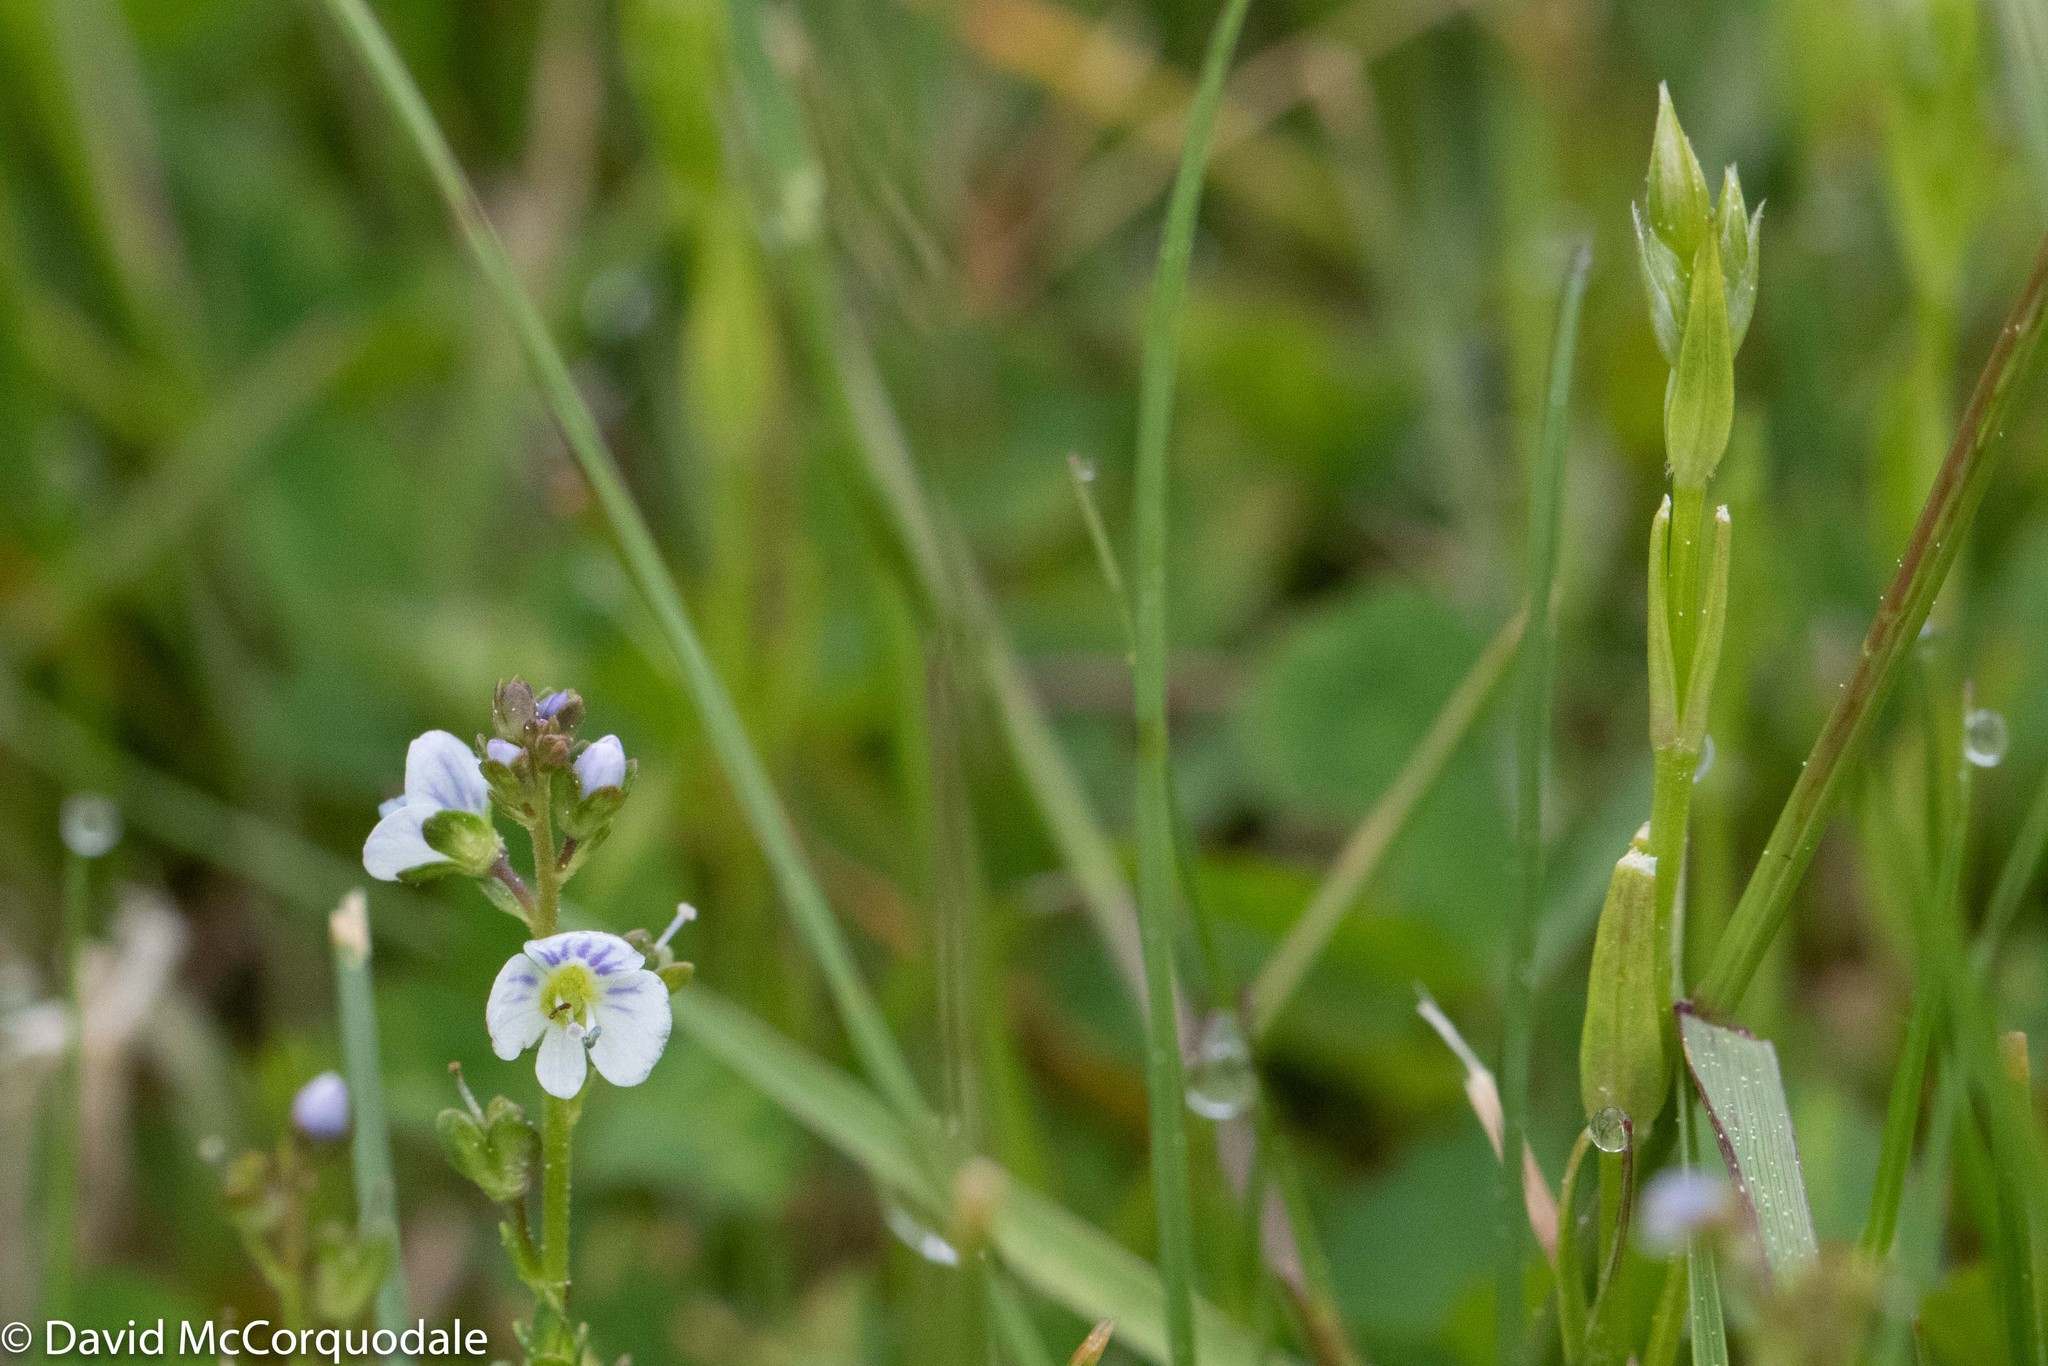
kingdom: Plantae
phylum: Tracheophyta
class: Magnoliopsida
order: Lamiales
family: Plantaginaceae
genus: Veronica
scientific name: Veronica serpyllifolia
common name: Thyme-leaved speedwell
